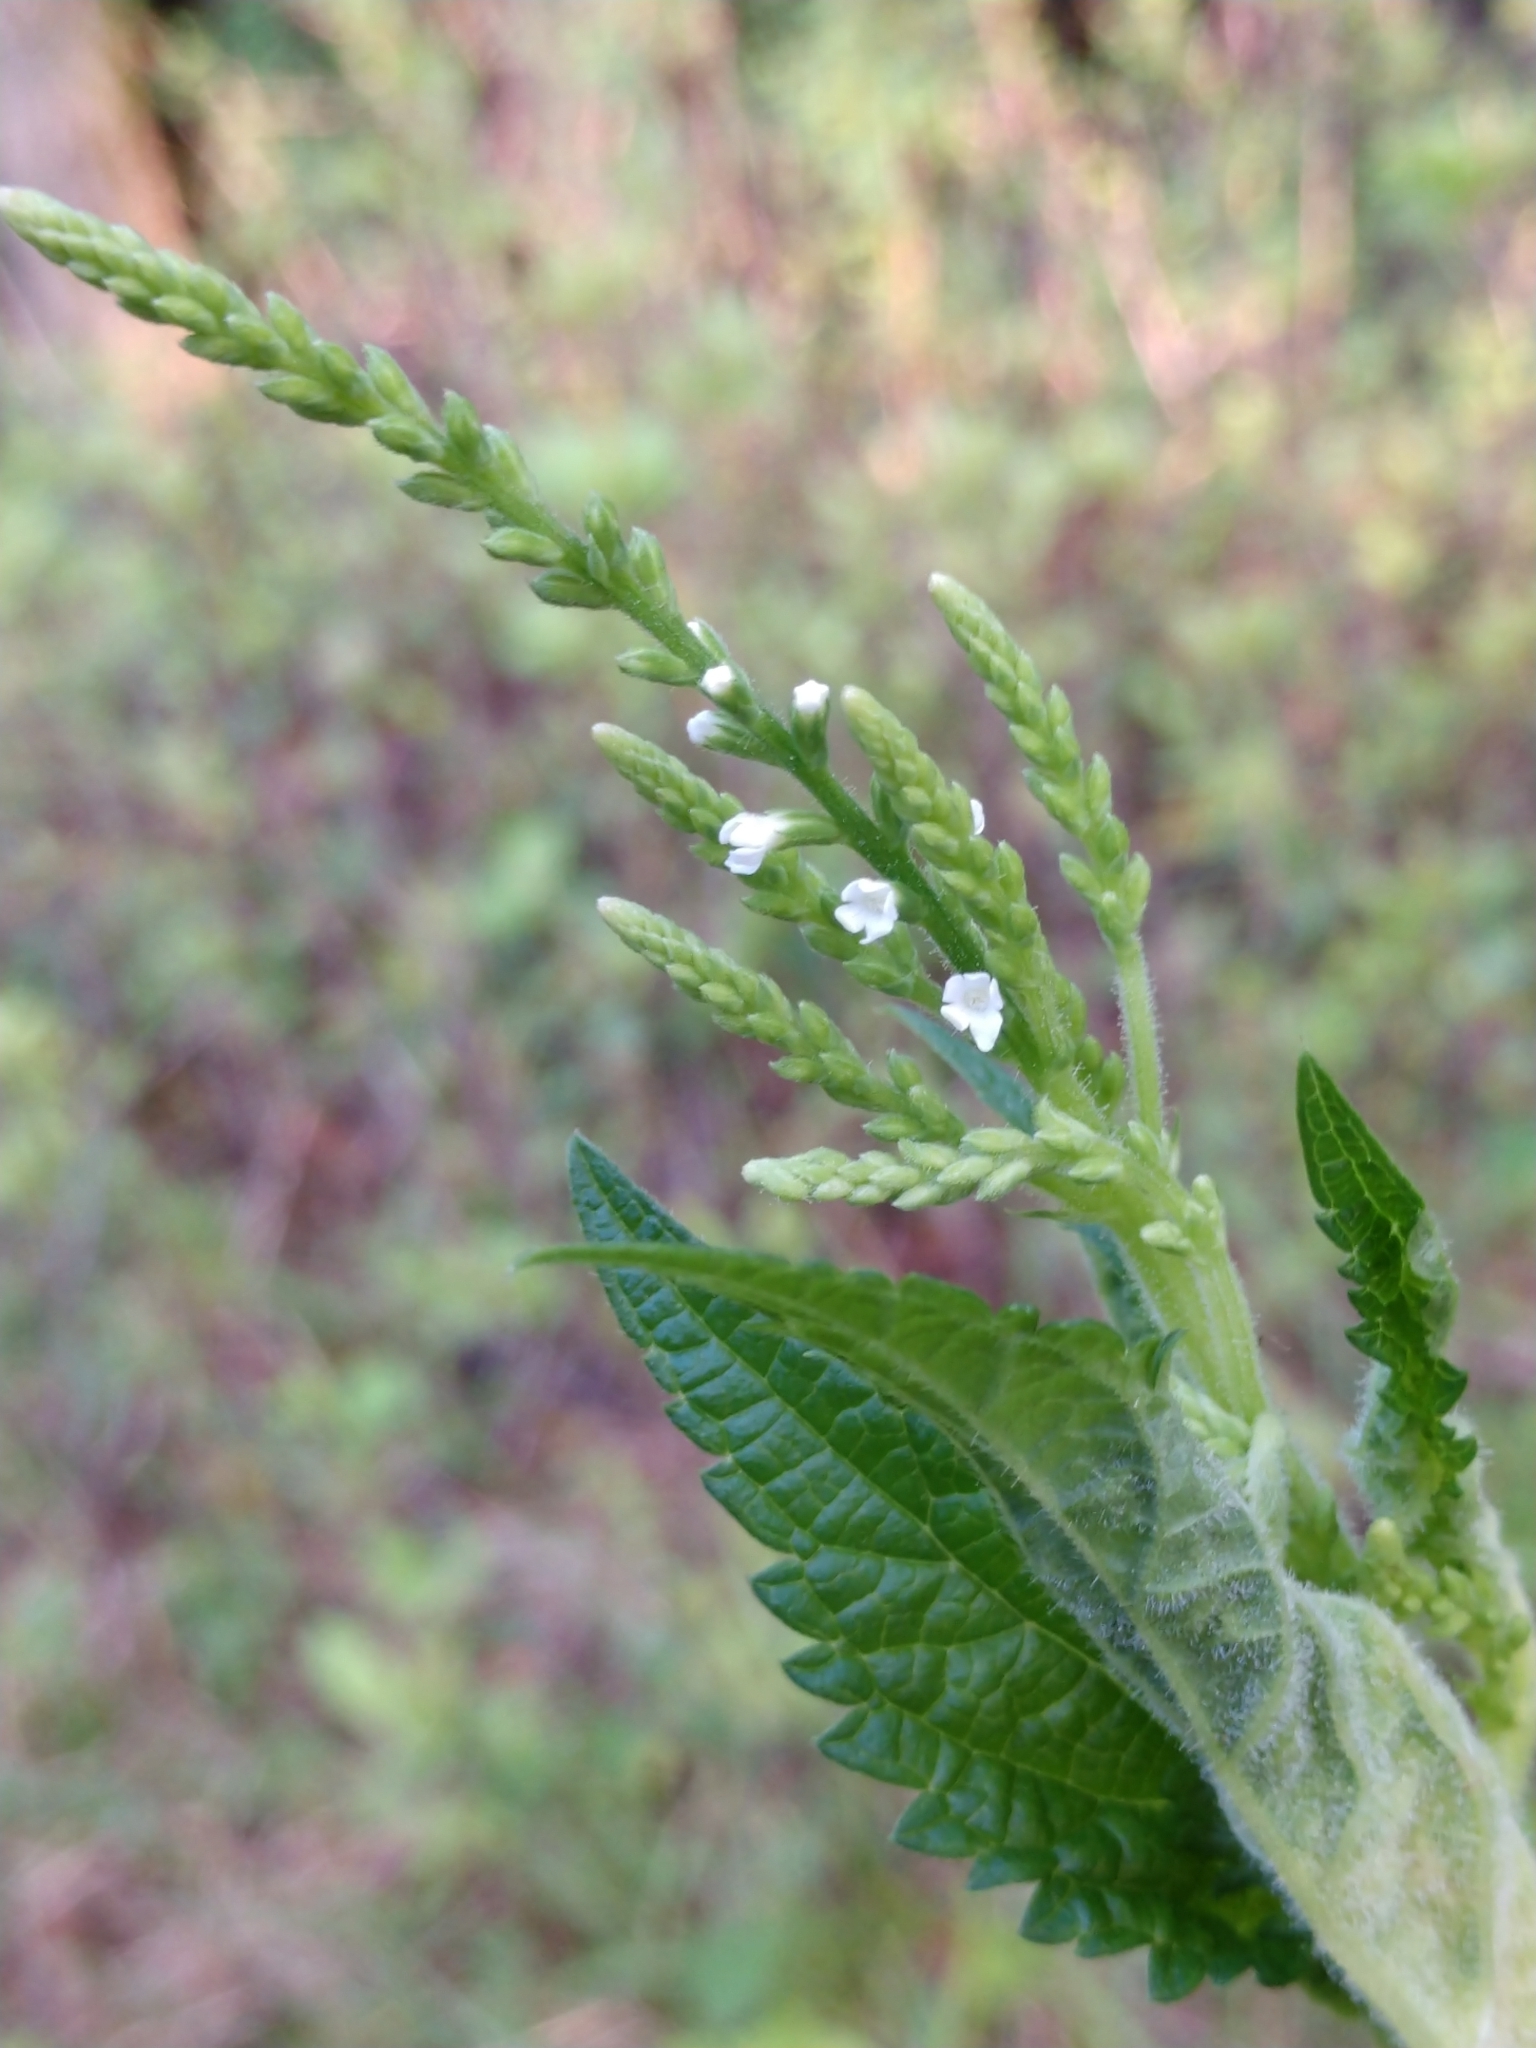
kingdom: Plantae
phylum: Tracheophyta
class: Magnoliopsida
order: Lamiales
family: Verbenaceae
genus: Verbena
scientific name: Verbena urticifolia
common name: Nettle-leaved vervain
